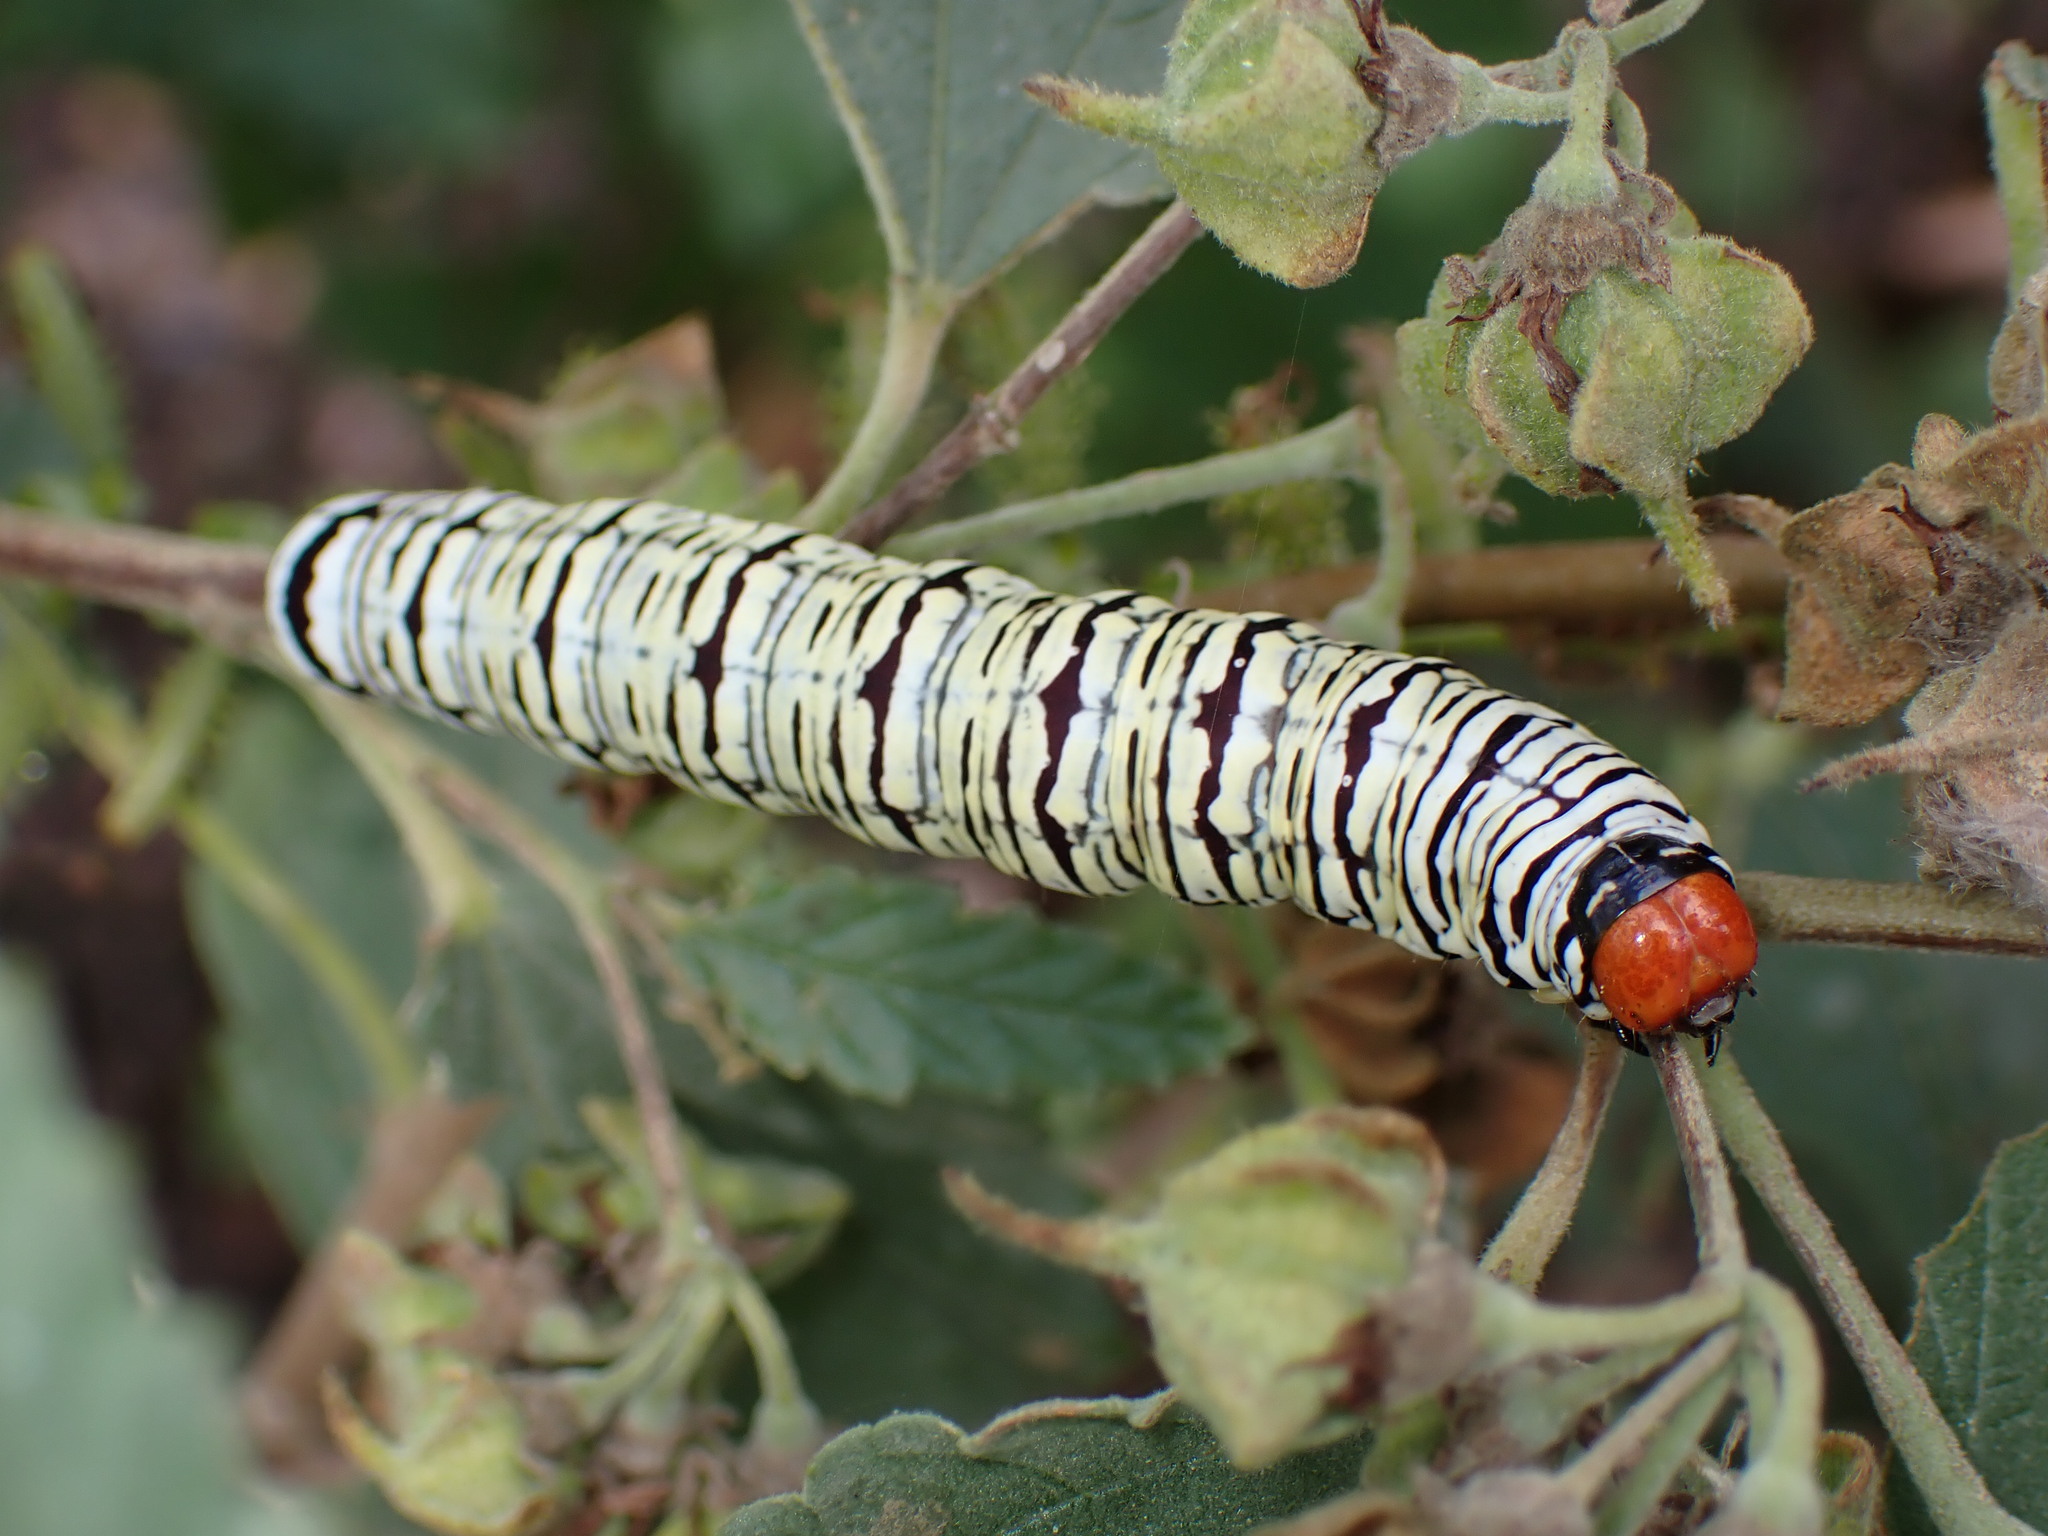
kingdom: Animalia
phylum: Arthropoda
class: Insecta
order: Lepidoptera
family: Erebidae
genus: Diphthera
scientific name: Diphthera festiva
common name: Hieroglyphic moth
